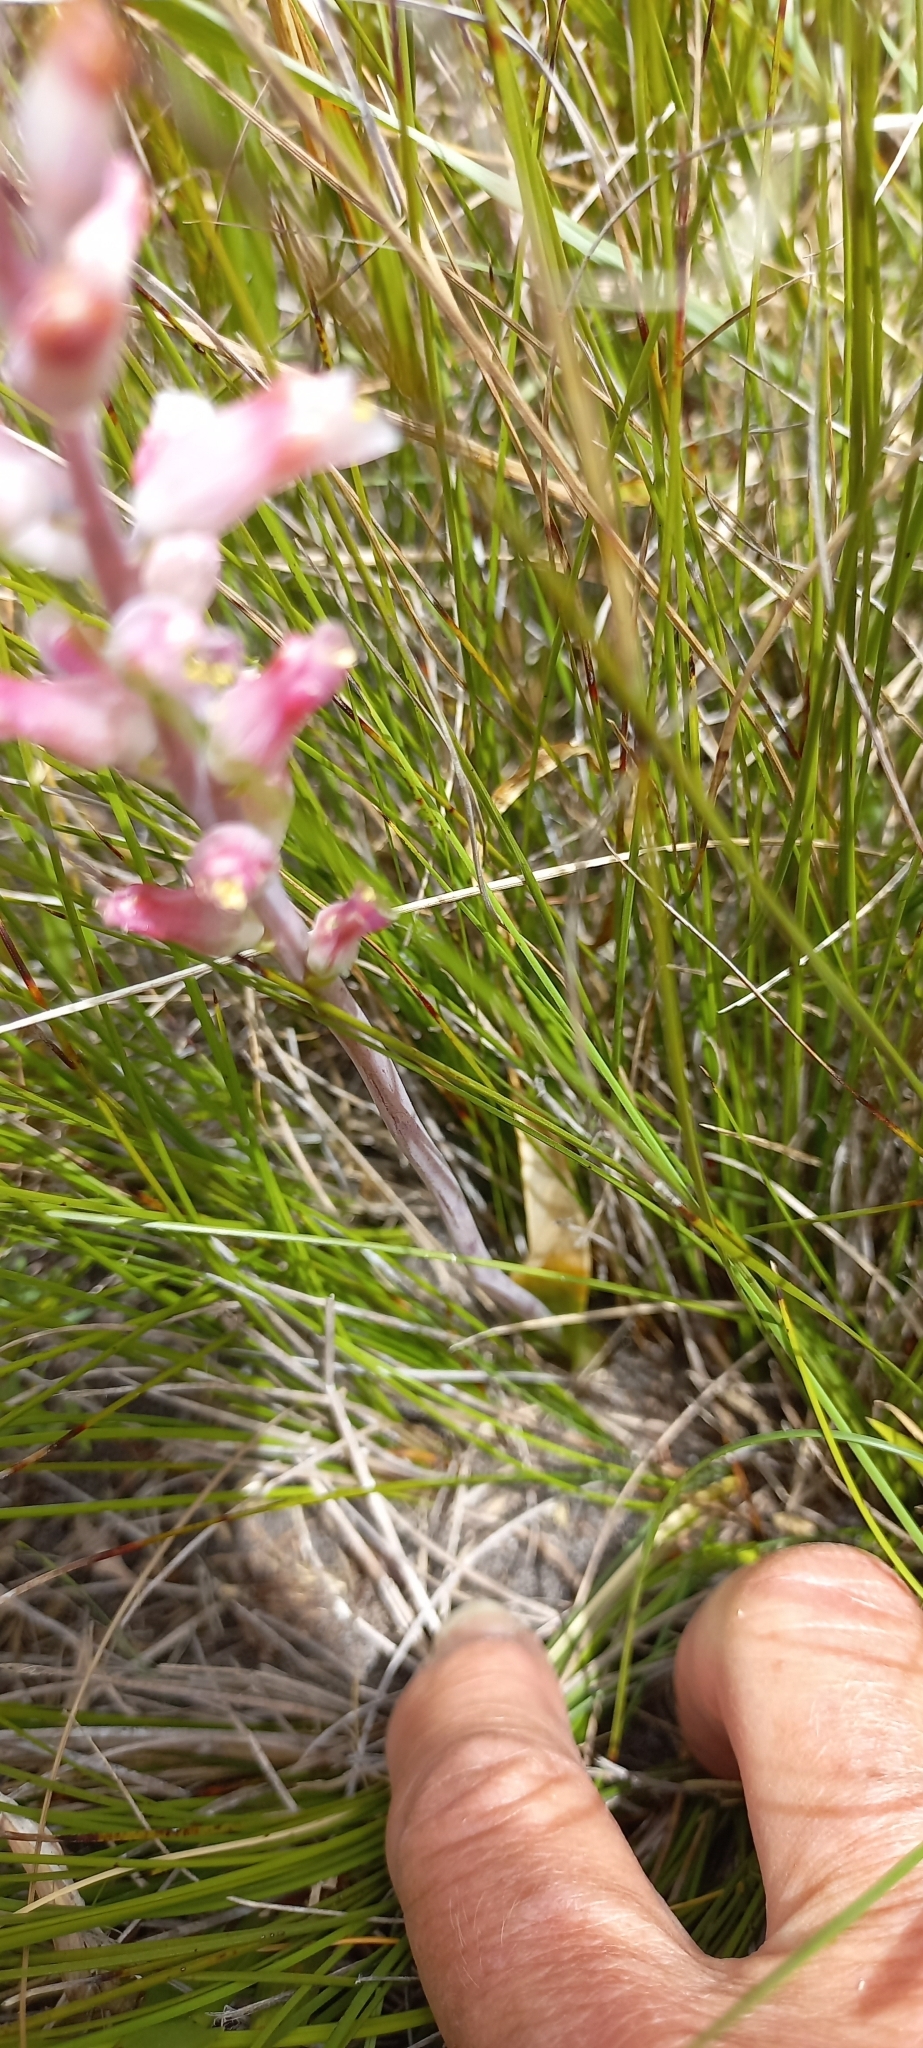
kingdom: Plantae
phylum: Tracheophyta
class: Liliopsida
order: Asparagales
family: Asparagaceae
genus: Lachenalia
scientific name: Lachenalia rosea
